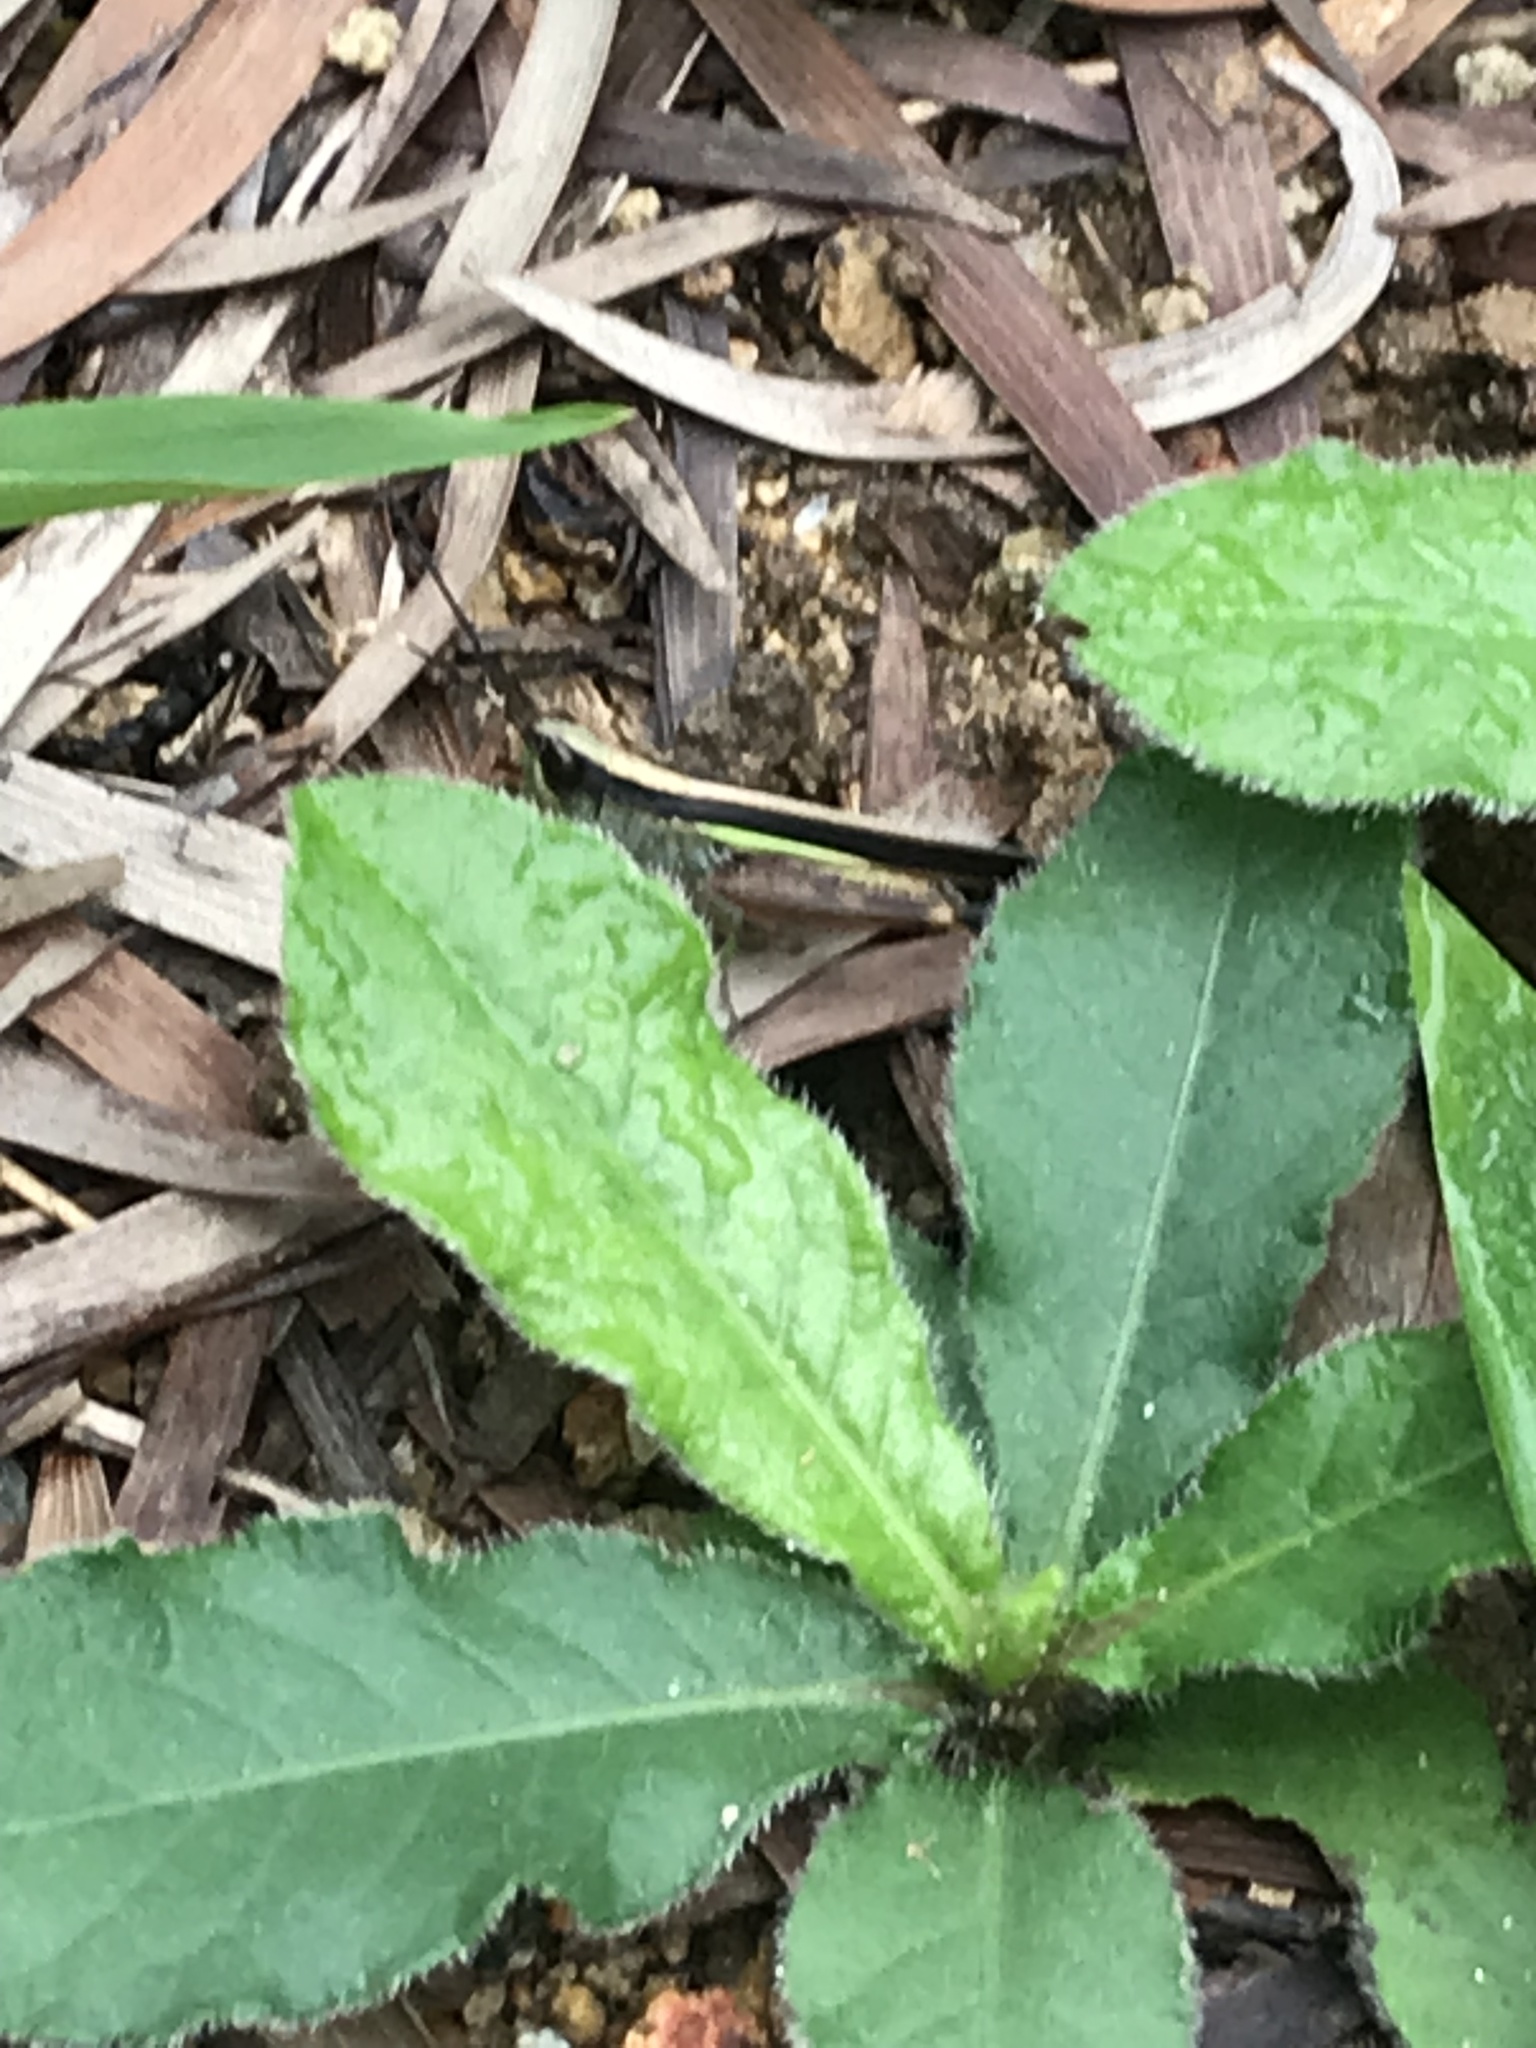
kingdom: Animalia
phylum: Arthropoda
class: Insecta
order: Orthoptera
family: Acrididae
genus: Ceracris
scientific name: Ceracris fasciata
